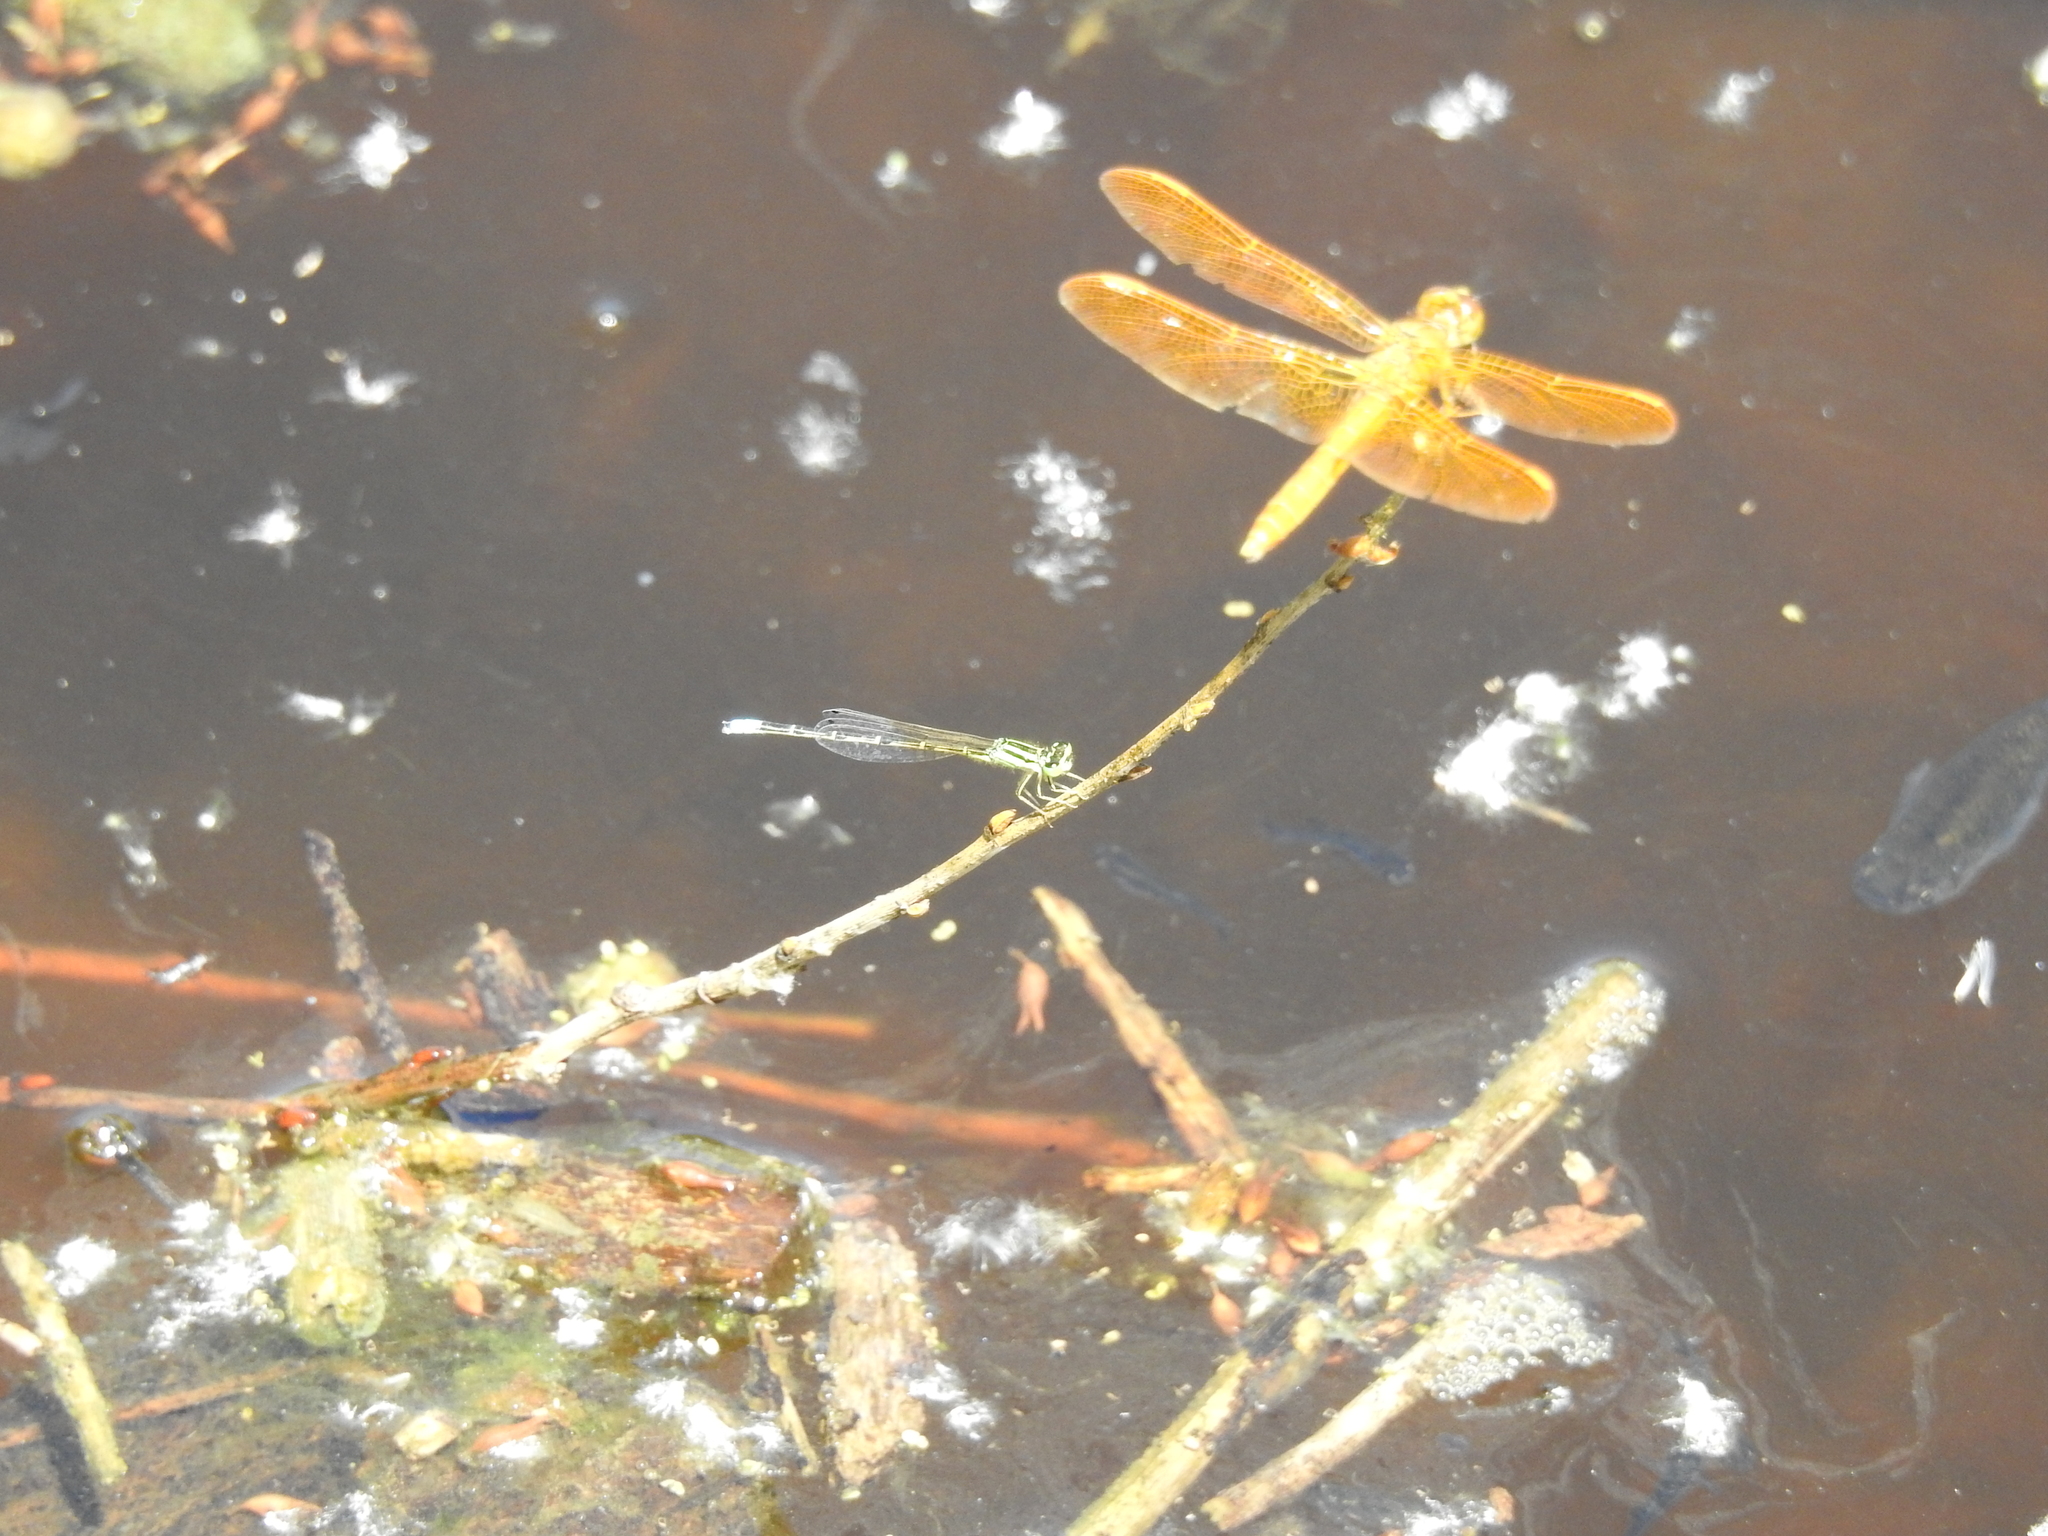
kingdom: Animalia
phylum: Arthropoda
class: Insecta
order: Odonata
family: Coenagrionidae
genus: Ischnura
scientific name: Ischnura demorsa
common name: Mexican forktail
